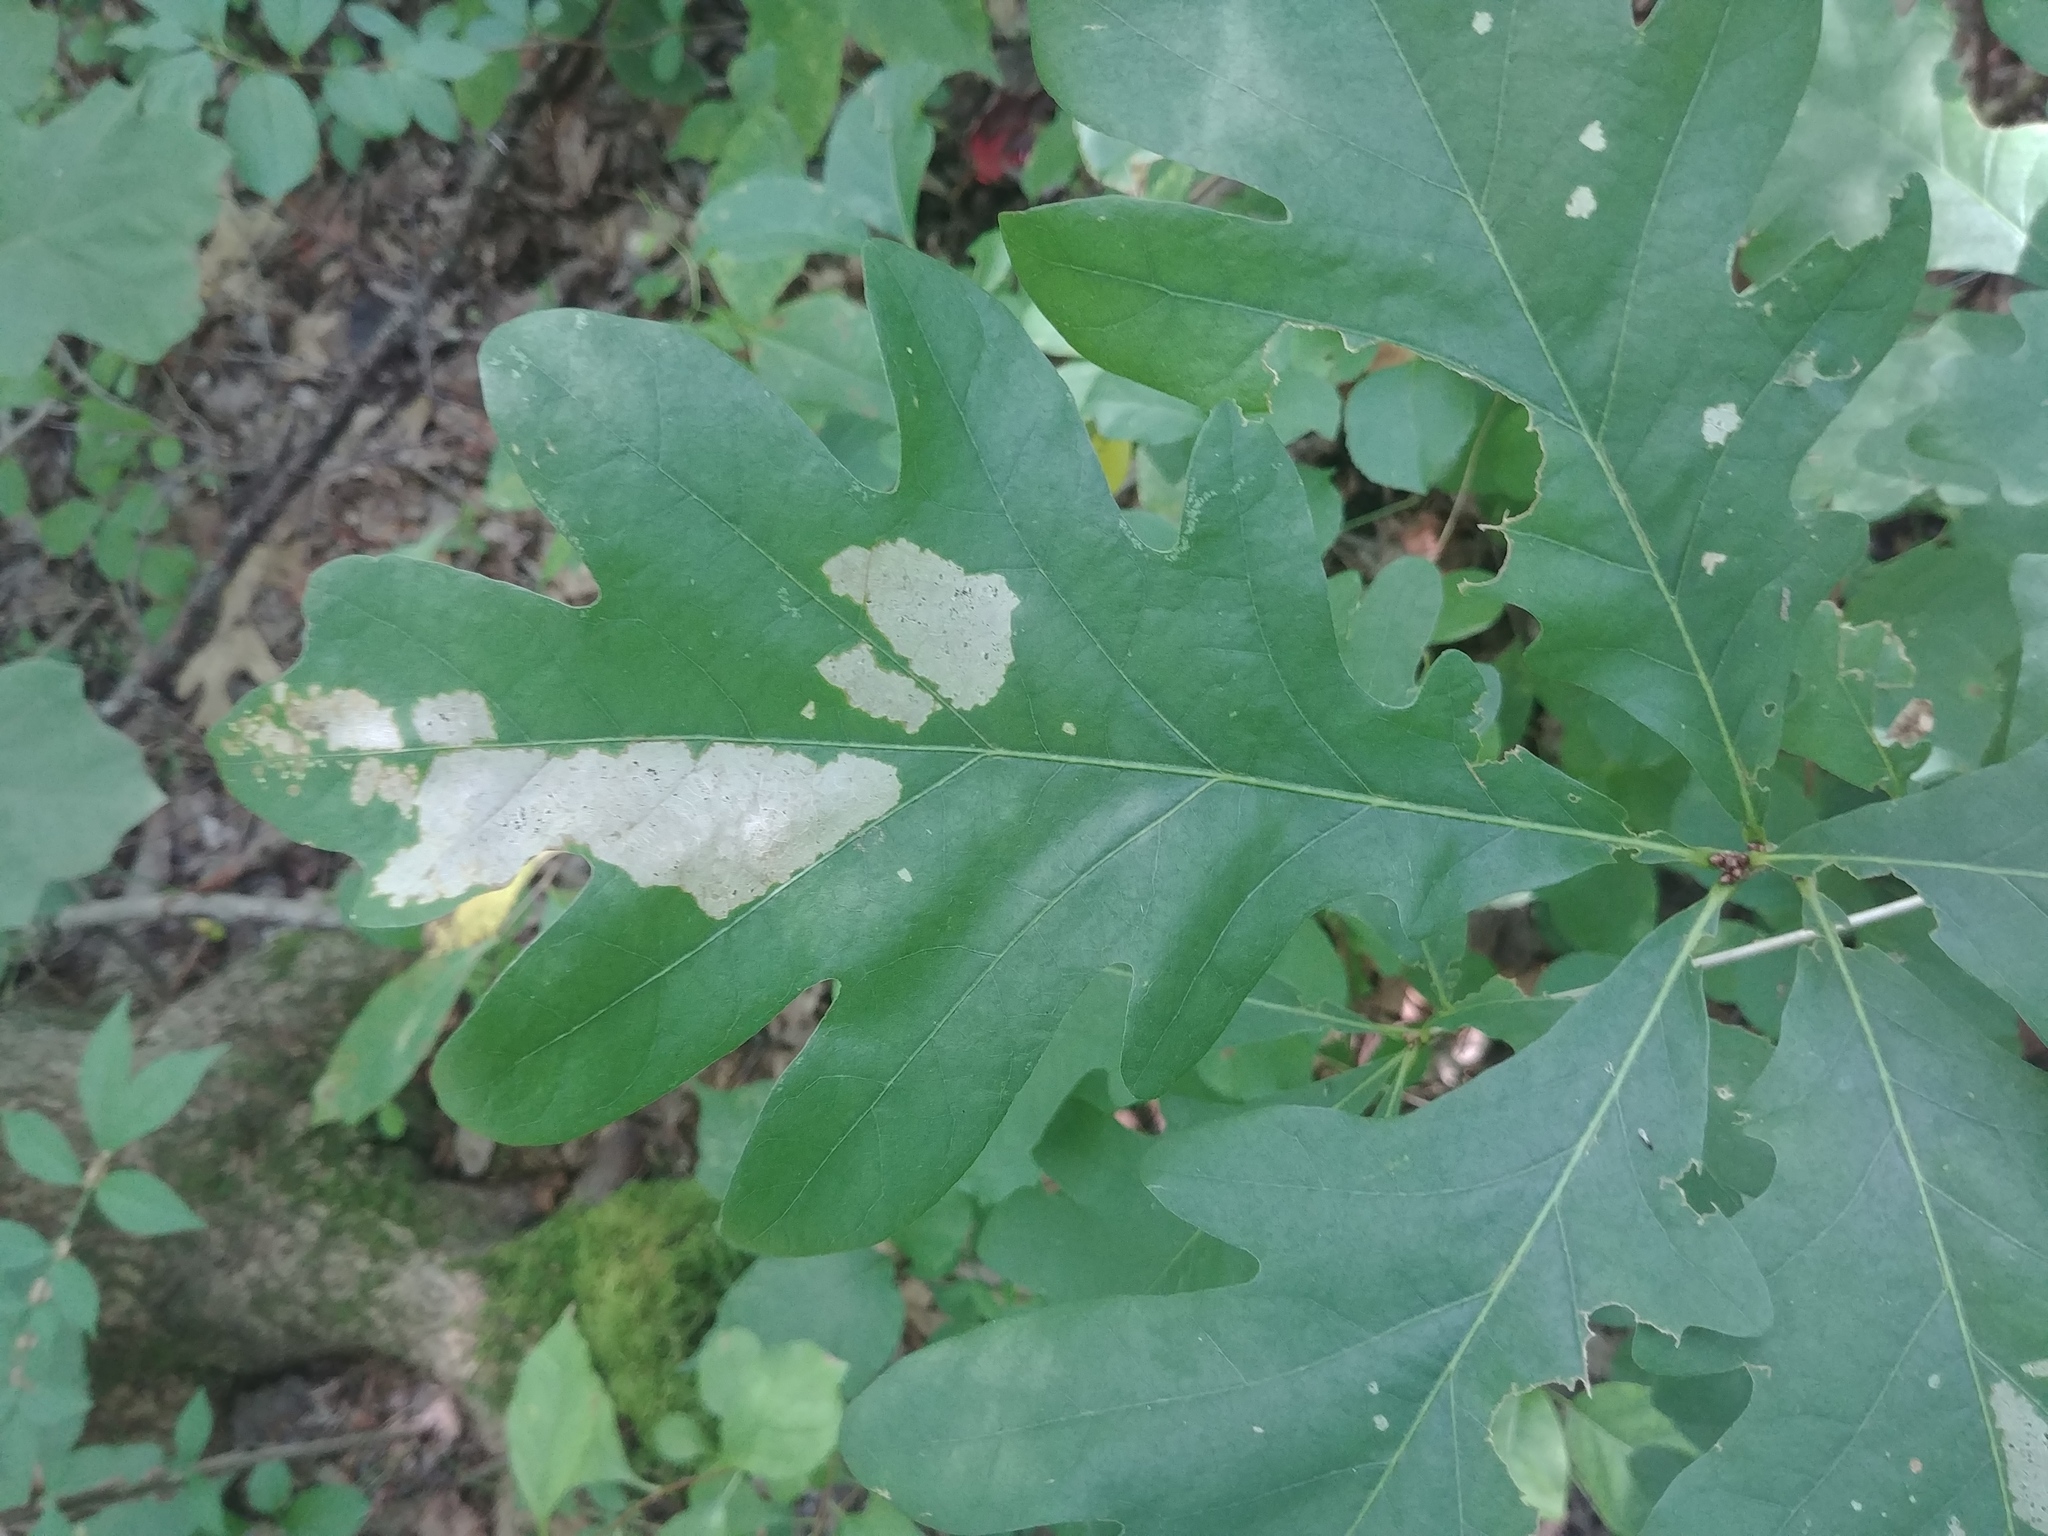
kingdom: Plantae
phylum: Tracheophyta
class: Magnoliopsida
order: Fagales
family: Fagaceae
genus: Quercus
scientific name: Quercus alba
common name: White oak
